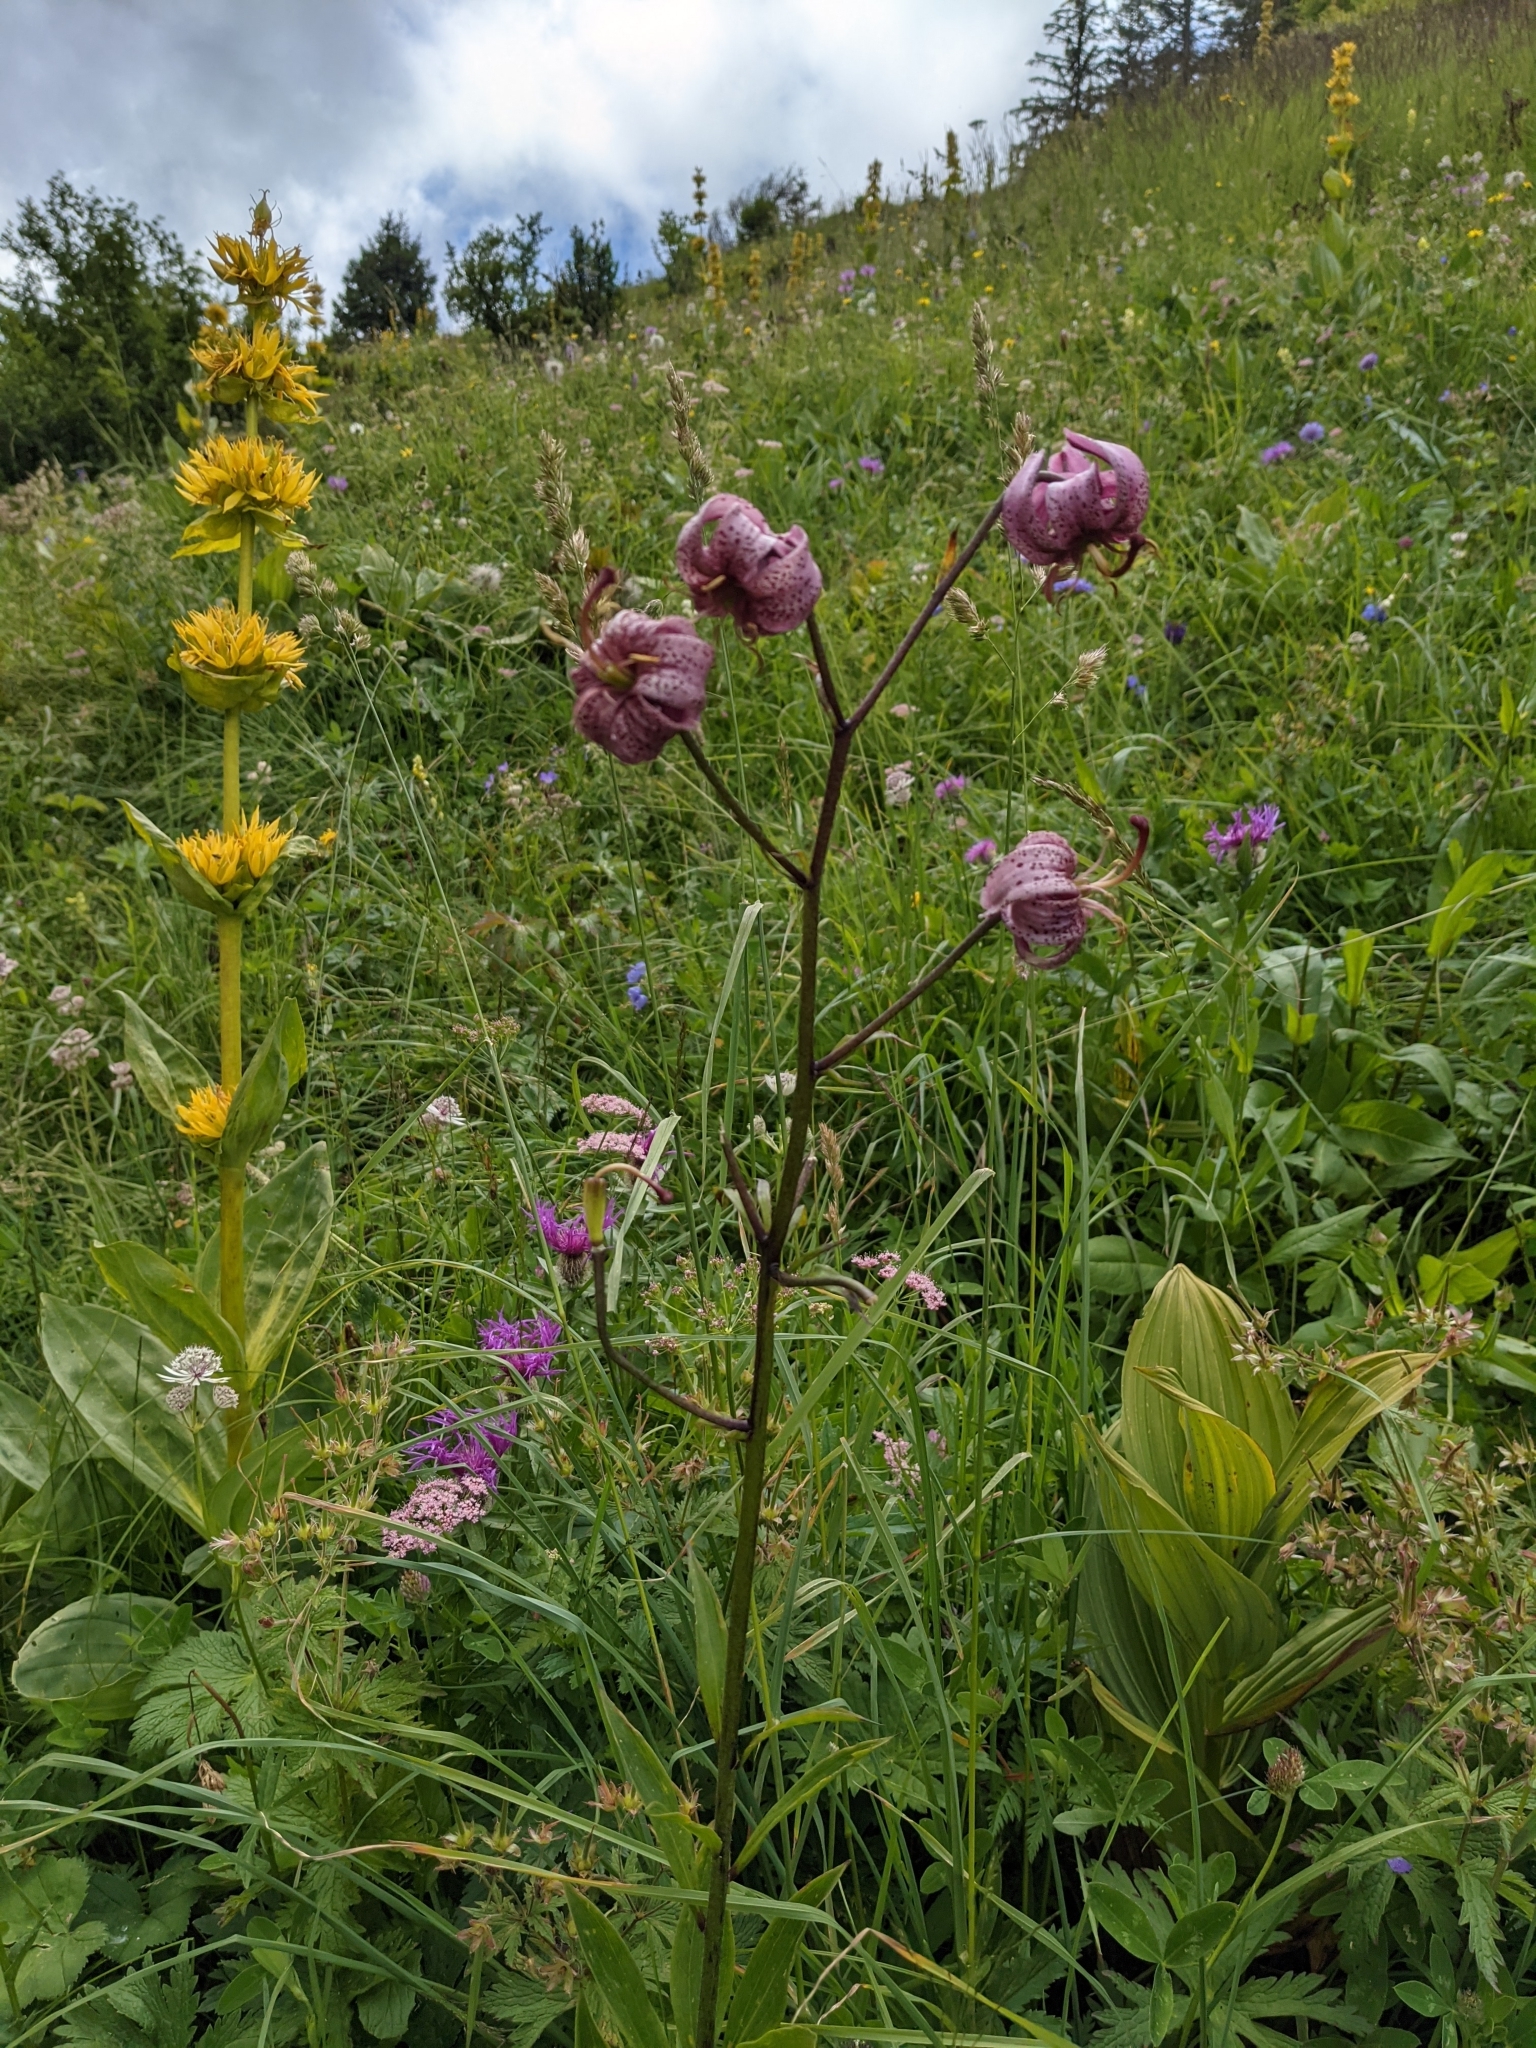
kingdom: Plantae
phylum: Tracheophyta
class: Liliopsida
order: Liliales
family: Liliaceae
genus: Lilium
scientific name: Lilium martagon
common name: Martagon lily
